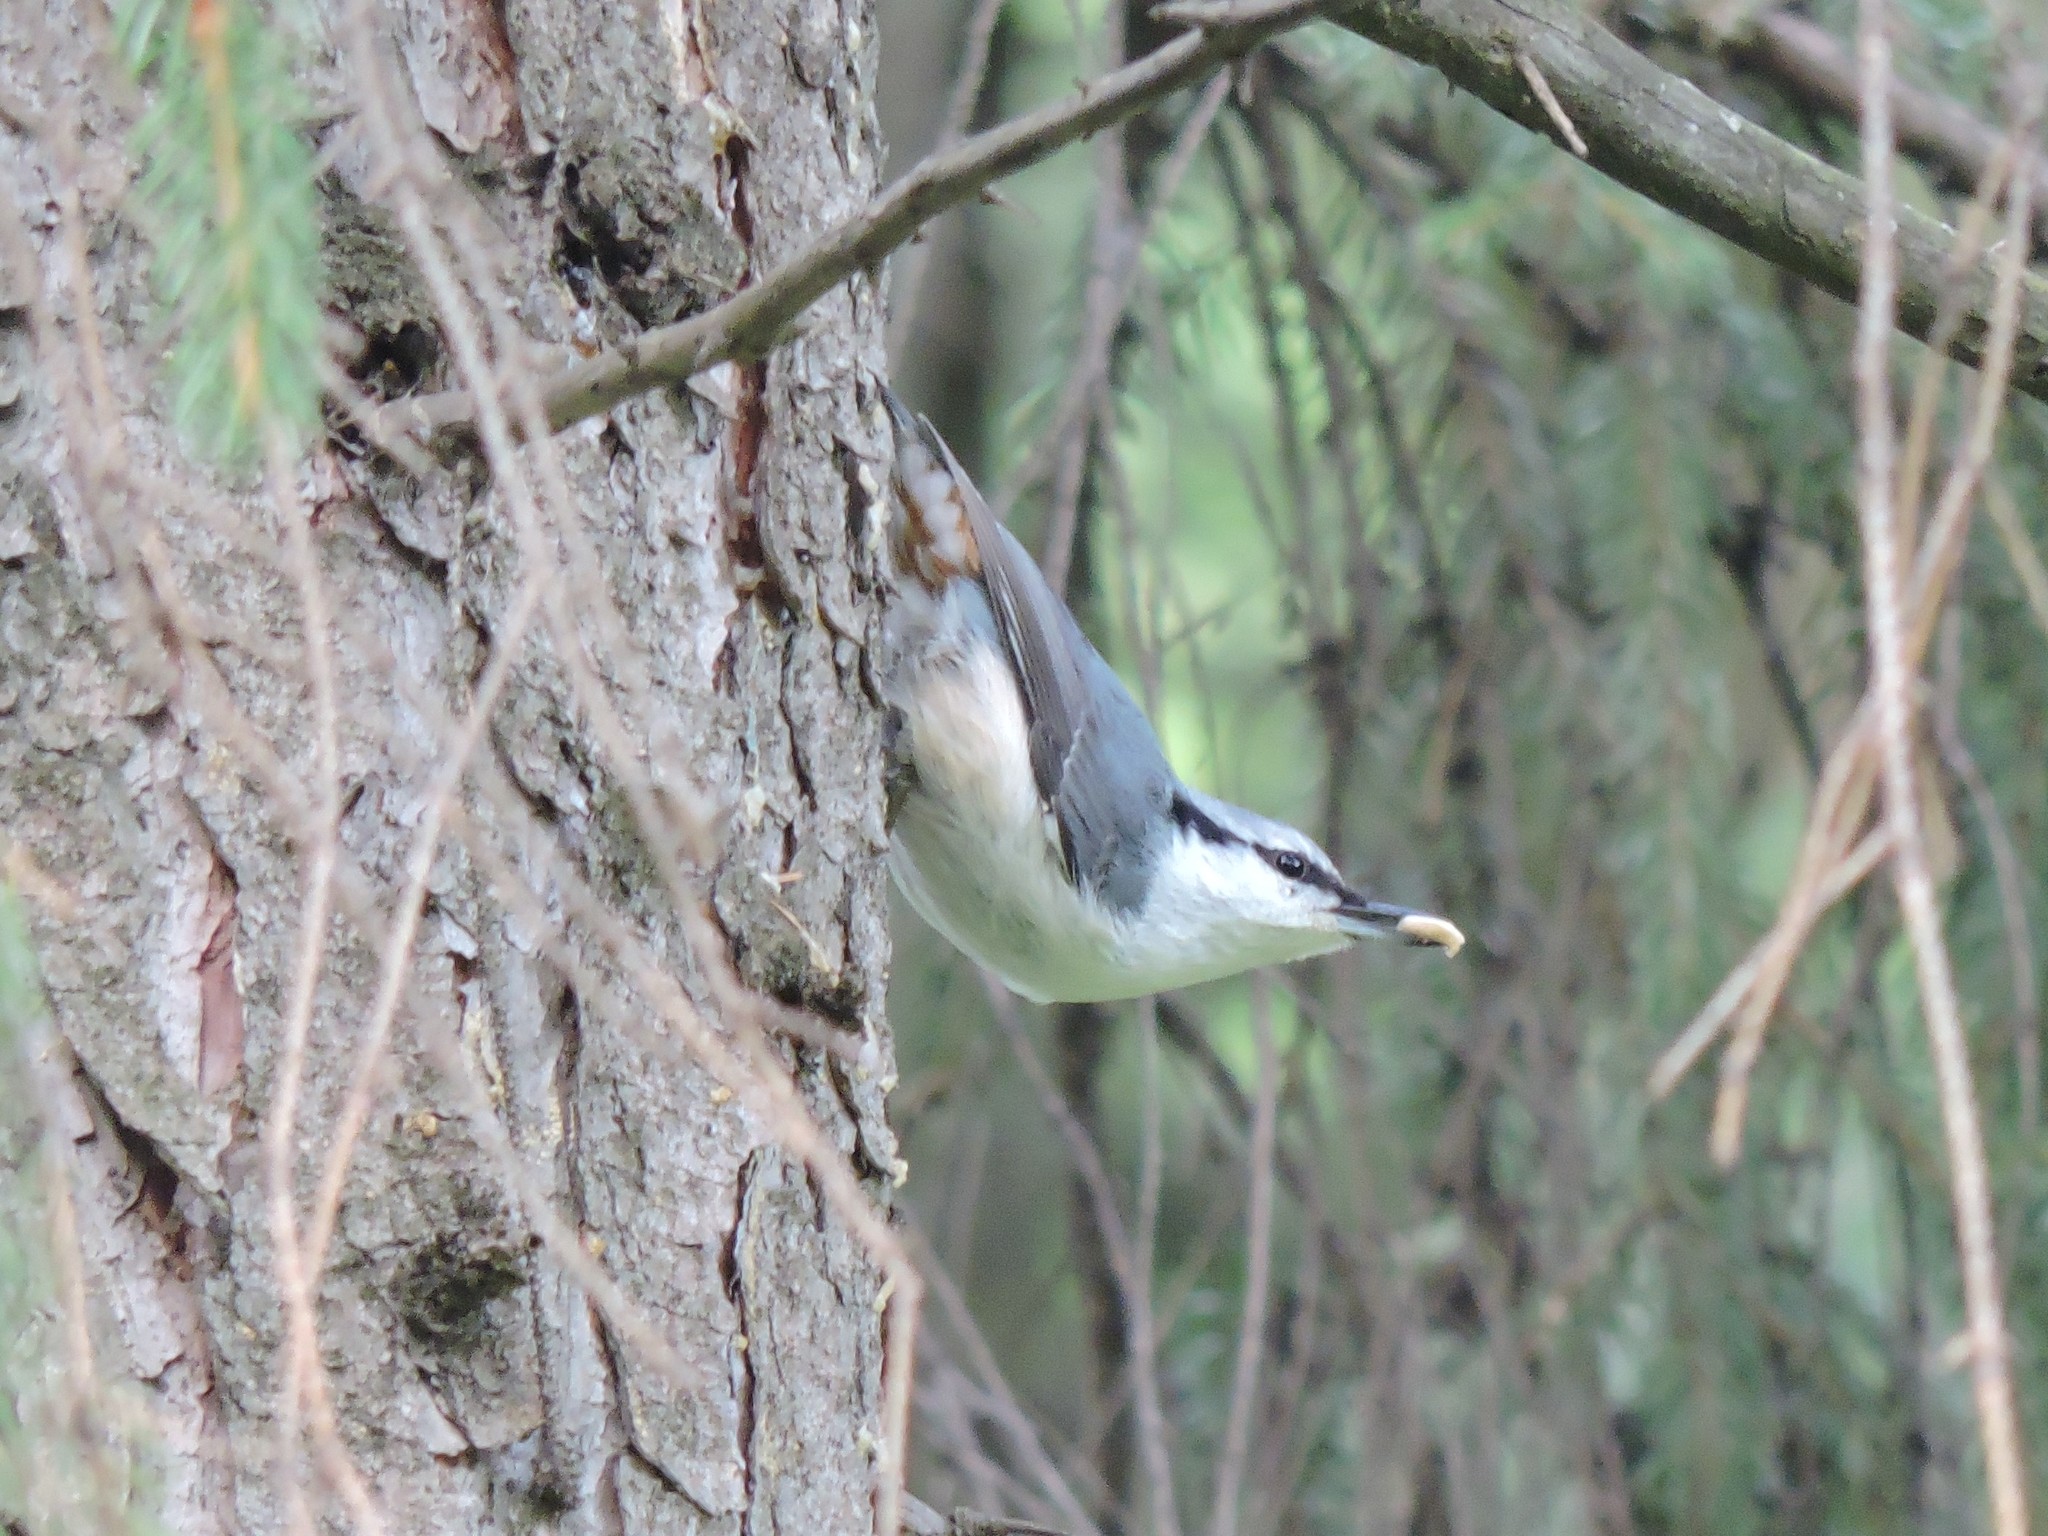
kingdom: Animalia
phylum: Chordata
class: Aves
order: Passeriformes
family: Sittidae
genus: Sitta
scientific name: Sitta europaea
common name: Eurasian nuthatch
